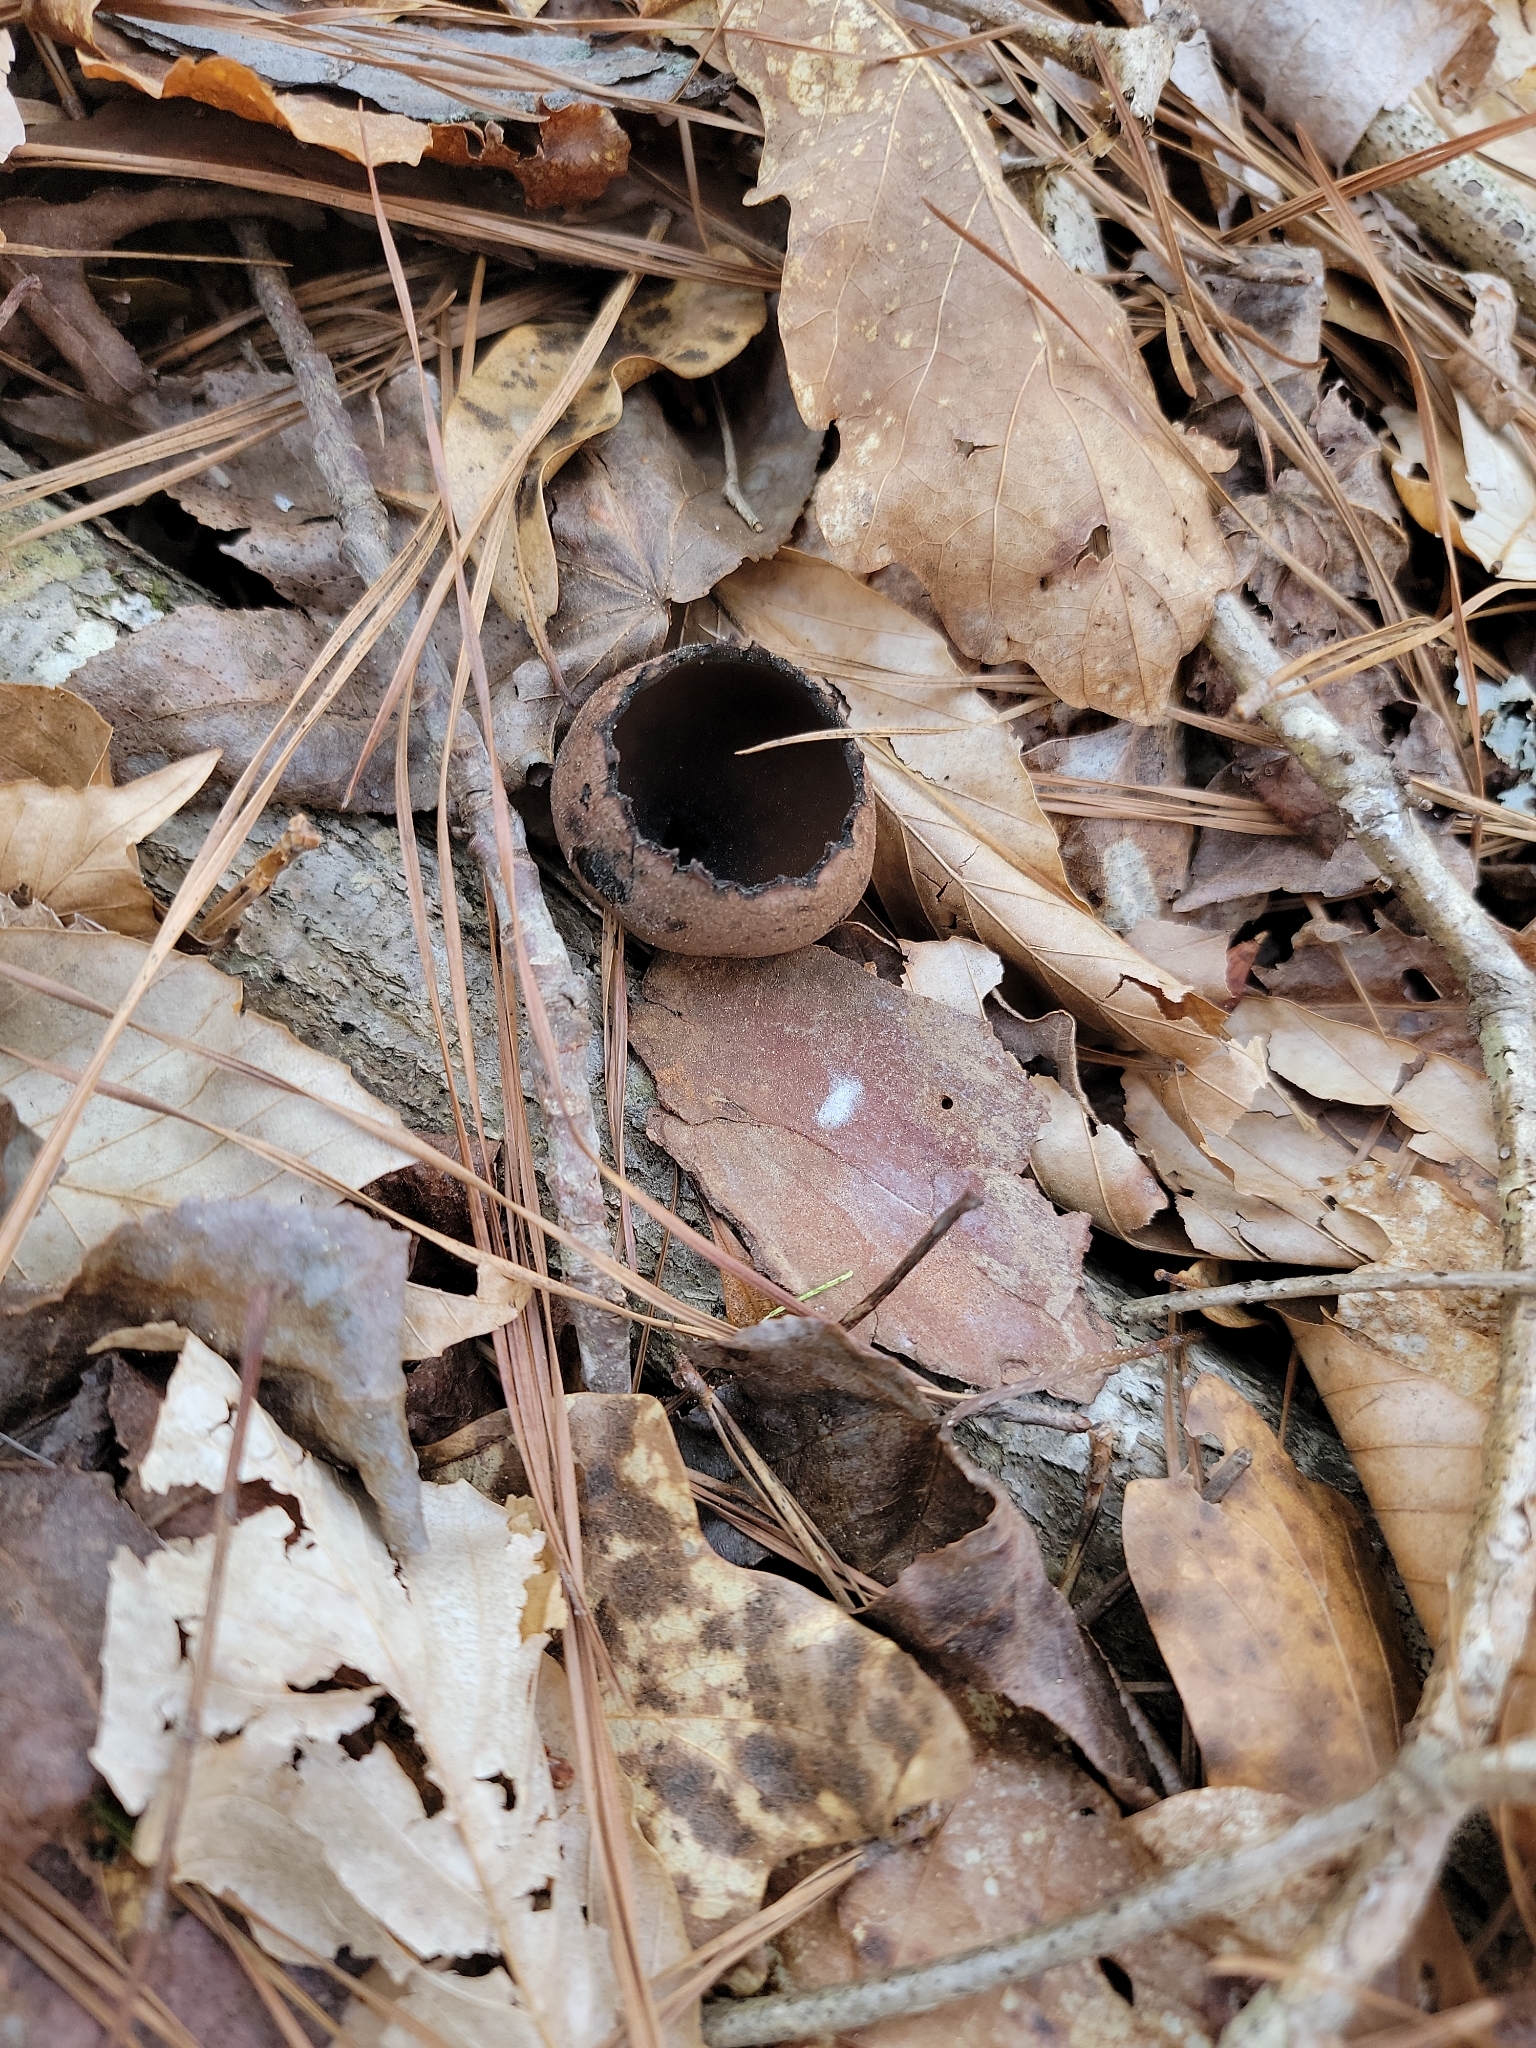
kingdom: Fungi
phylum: Ascomycota
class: Pezizomycetes
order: Pezizales
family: Sarcosomataceae
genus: Urnula
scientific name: Urnula craterium
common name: Devil's urn
